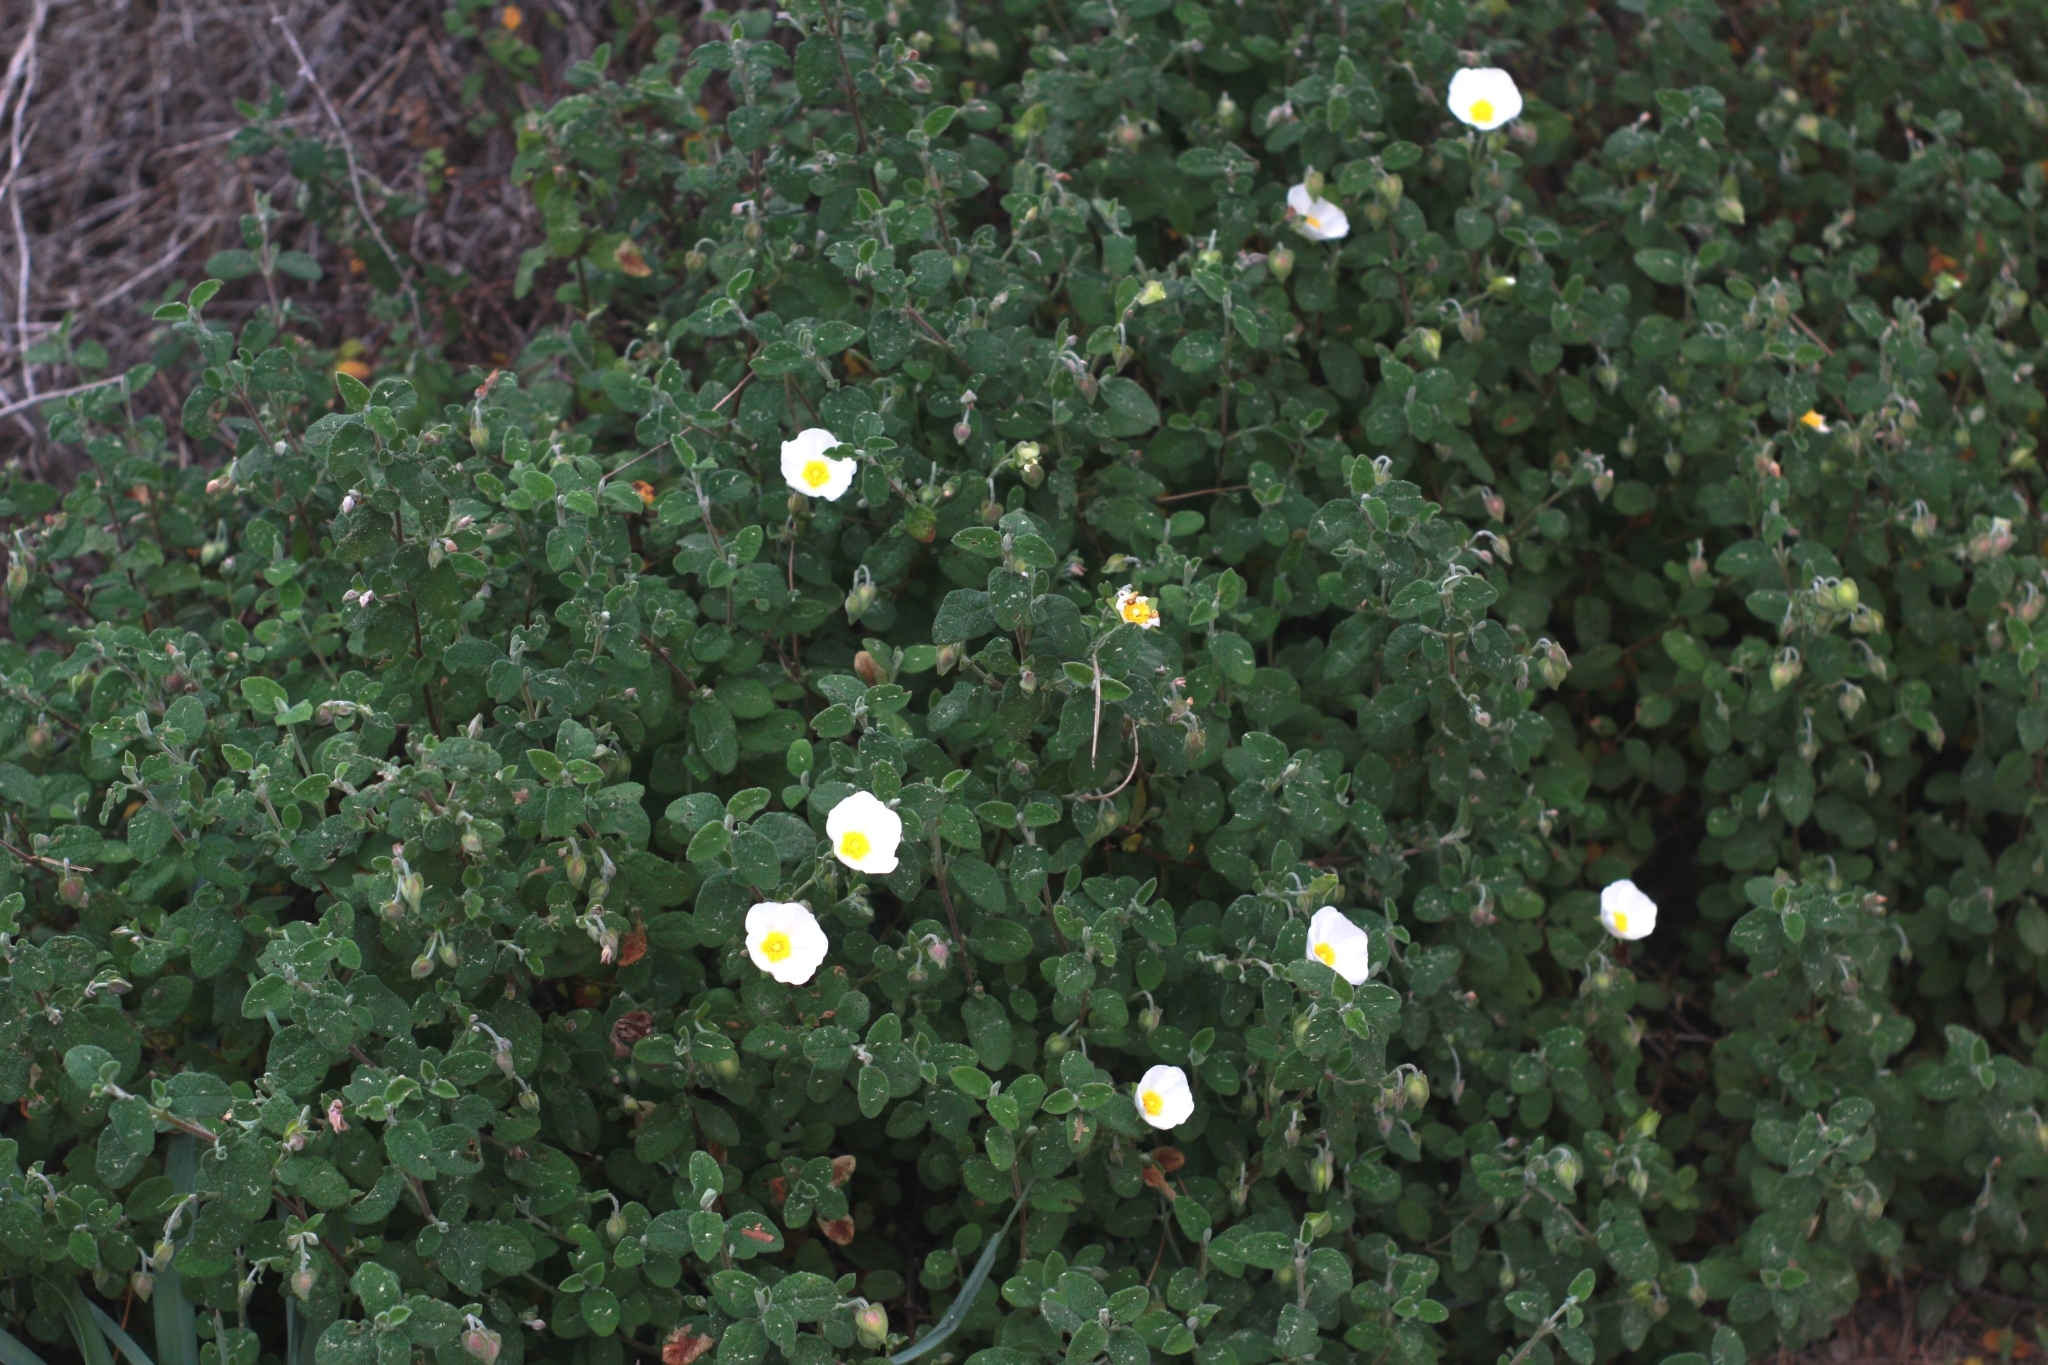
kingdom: Plantae
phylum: Tracheophyta
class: Magnoliopsida
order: Malvales
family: Cistaceae
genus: Cistus
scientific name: Cistus salviifolius
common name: Salvia cistus
